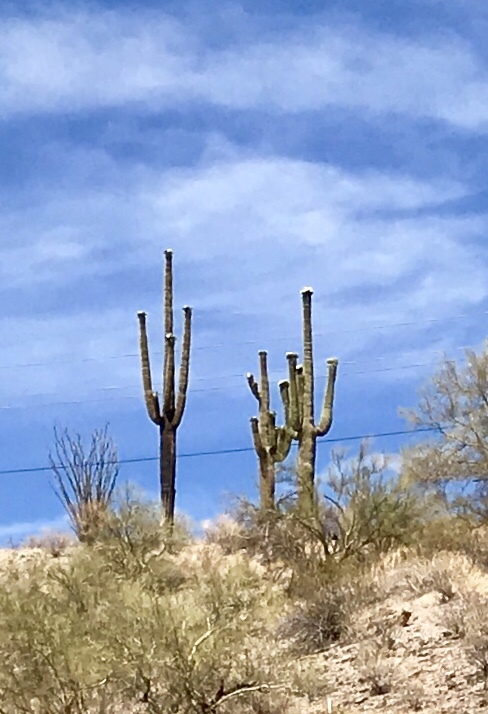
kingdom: Plantae
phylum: Tracheophyta
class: Magnoliopsida
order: Caryophyllales
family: Cactaceae
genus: Carnegiea
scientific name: Carnegiea gigantea
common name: Saguaro
